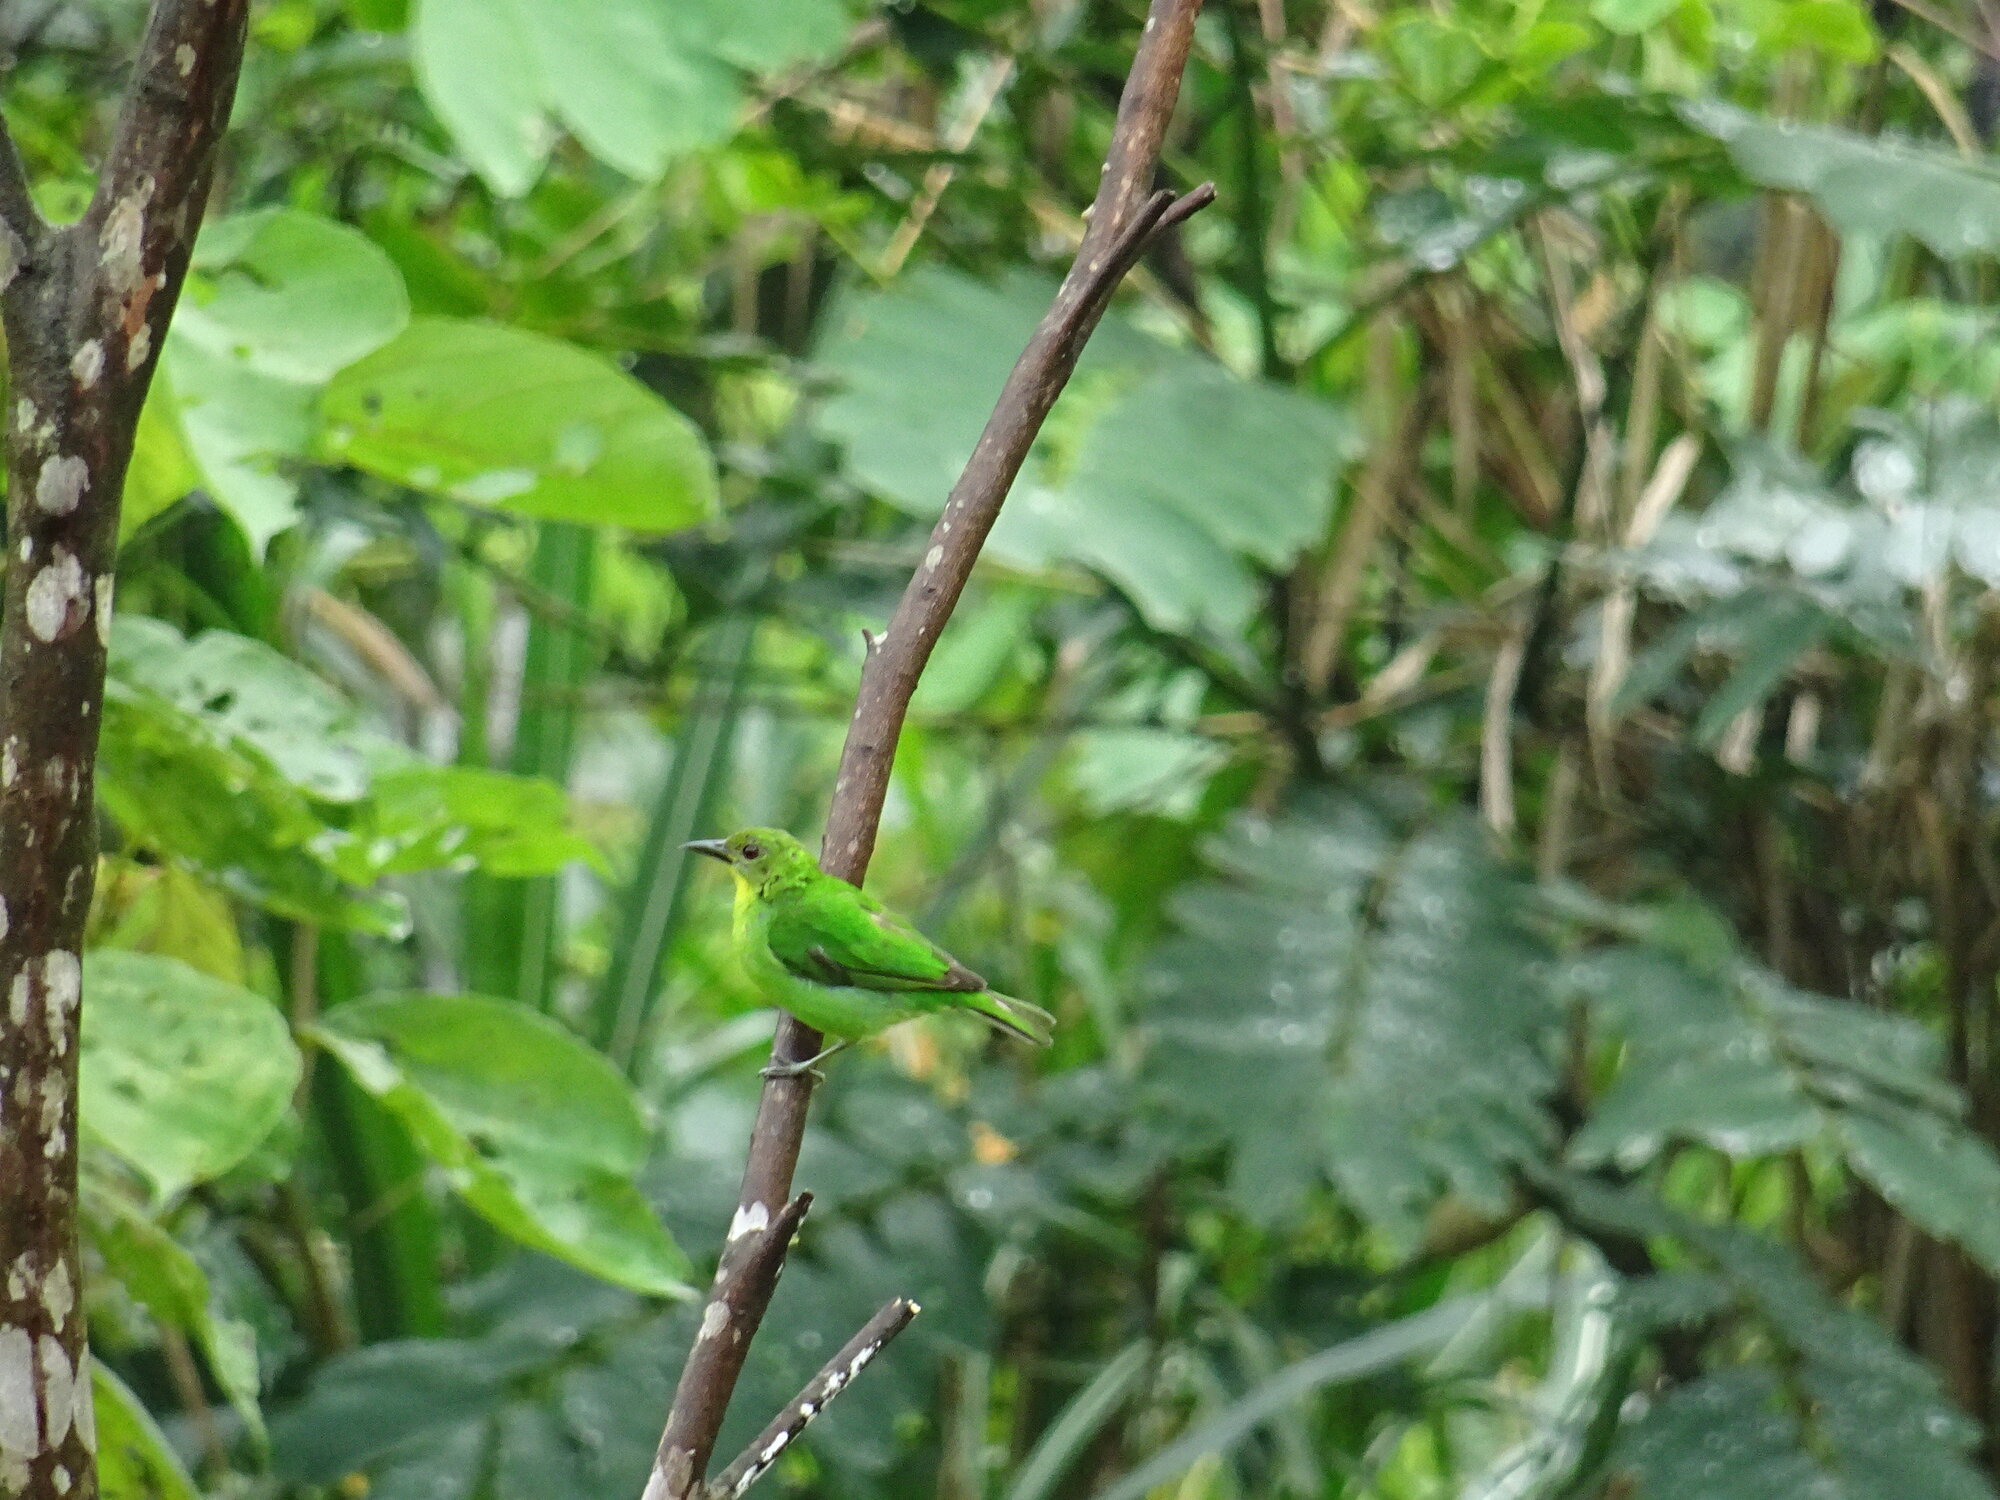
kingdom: Animalia
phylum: Chordata
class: Aves
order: Passeriformes
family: Thraupidae
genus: Chlorophanes
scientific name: Chlorophanes spiza
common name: Green honeycreeper
